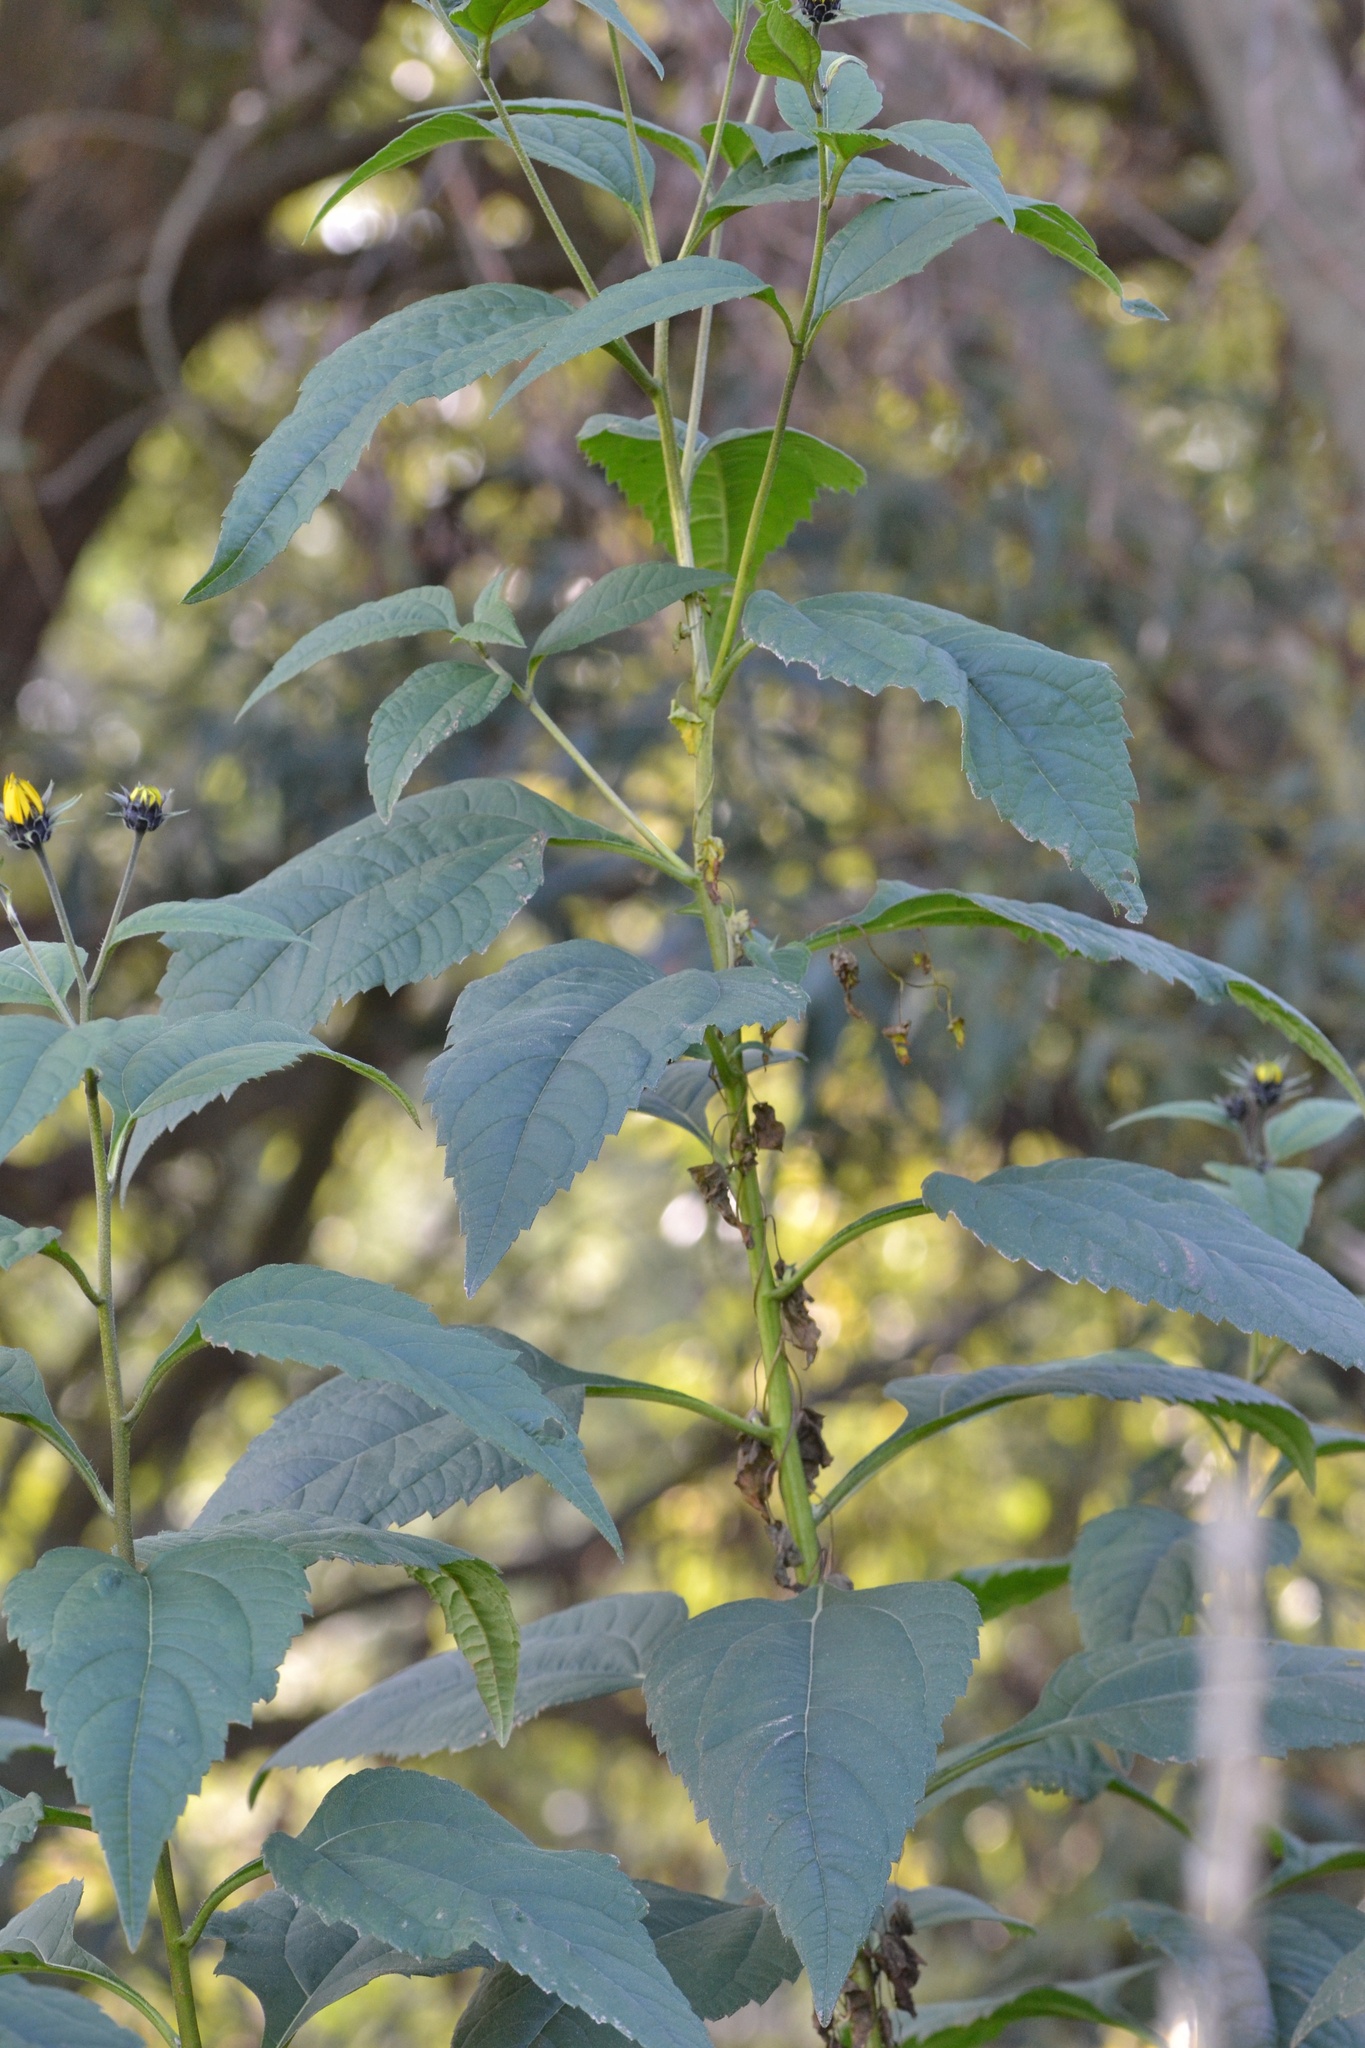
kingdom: Plantae
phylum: Tracheophyta
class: Magnoliopsida
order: Asterales
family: Asteraceae
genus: Helianthus
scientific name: Helianthus tuberosus
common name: Jerusalem artichoke
